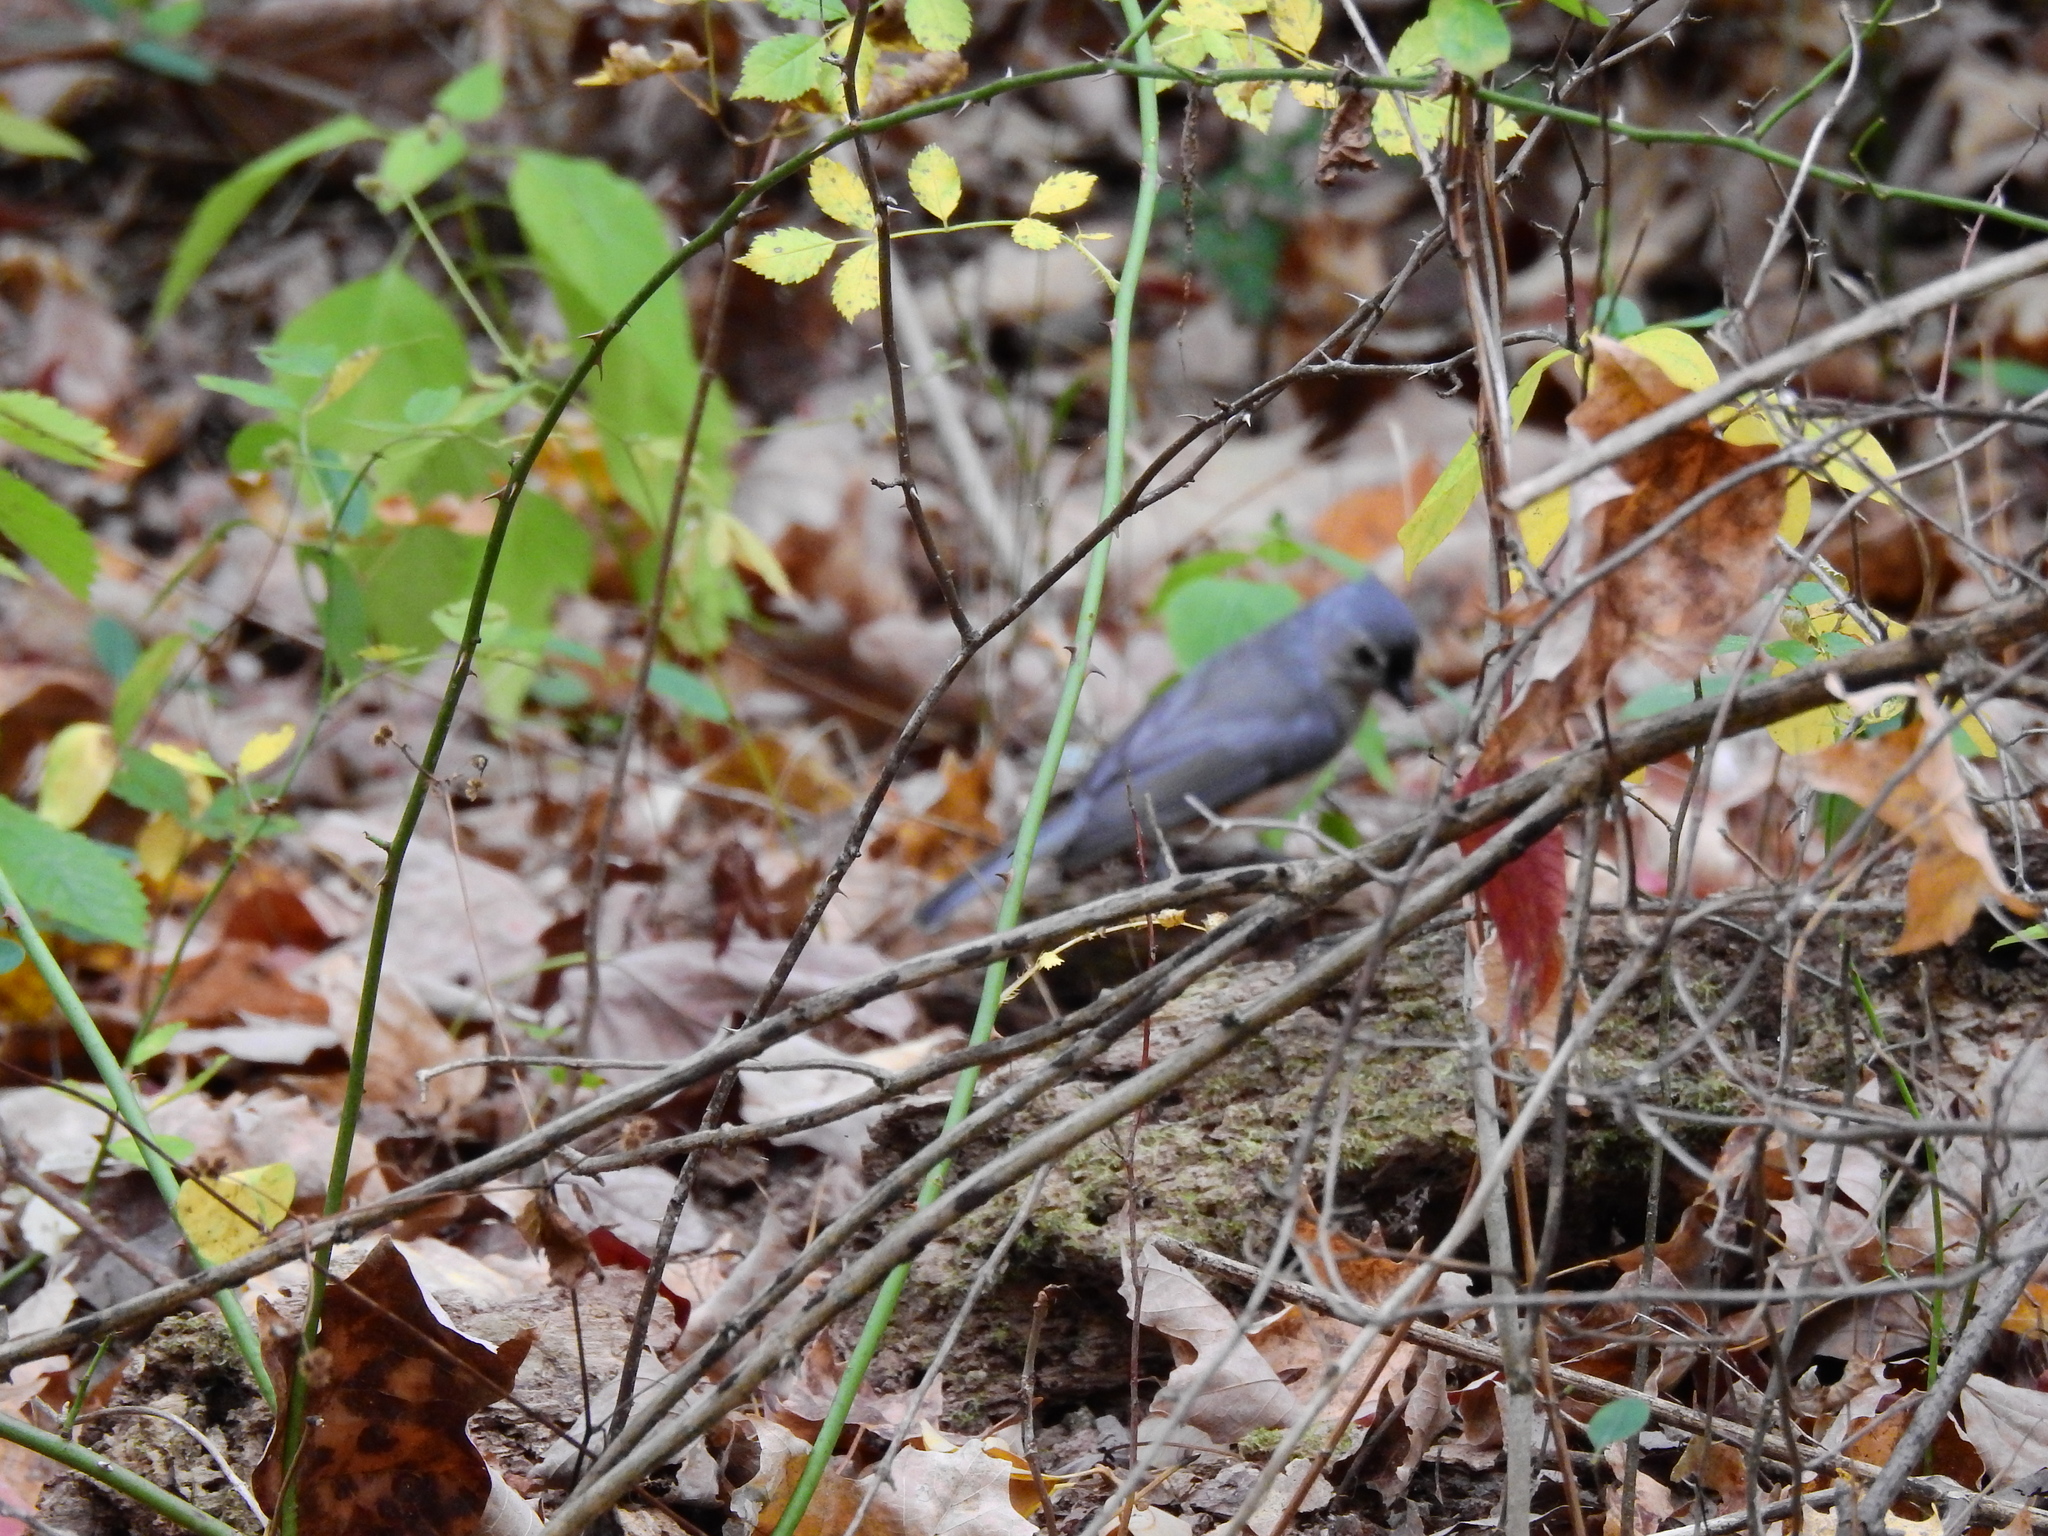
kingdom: Animalia
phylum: Chordata
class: Aves
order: Passeriformes
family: Paridae
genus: Baeolophus
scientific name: Baeolophus bicolor
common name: Tufted titmouse
